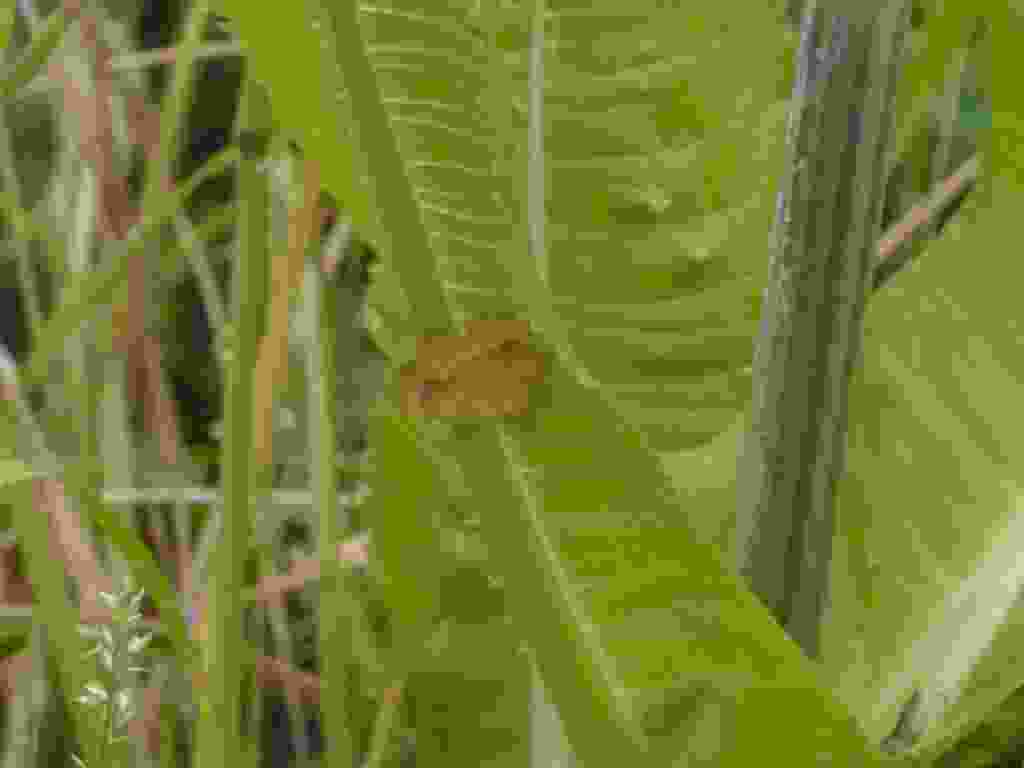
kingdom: Animalia
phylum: Arthropoda
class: Insecta
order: Lepidoptera
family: Geometridae
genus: Camptogramma
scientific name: Camptogramma bilineata
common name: Yellow shell
